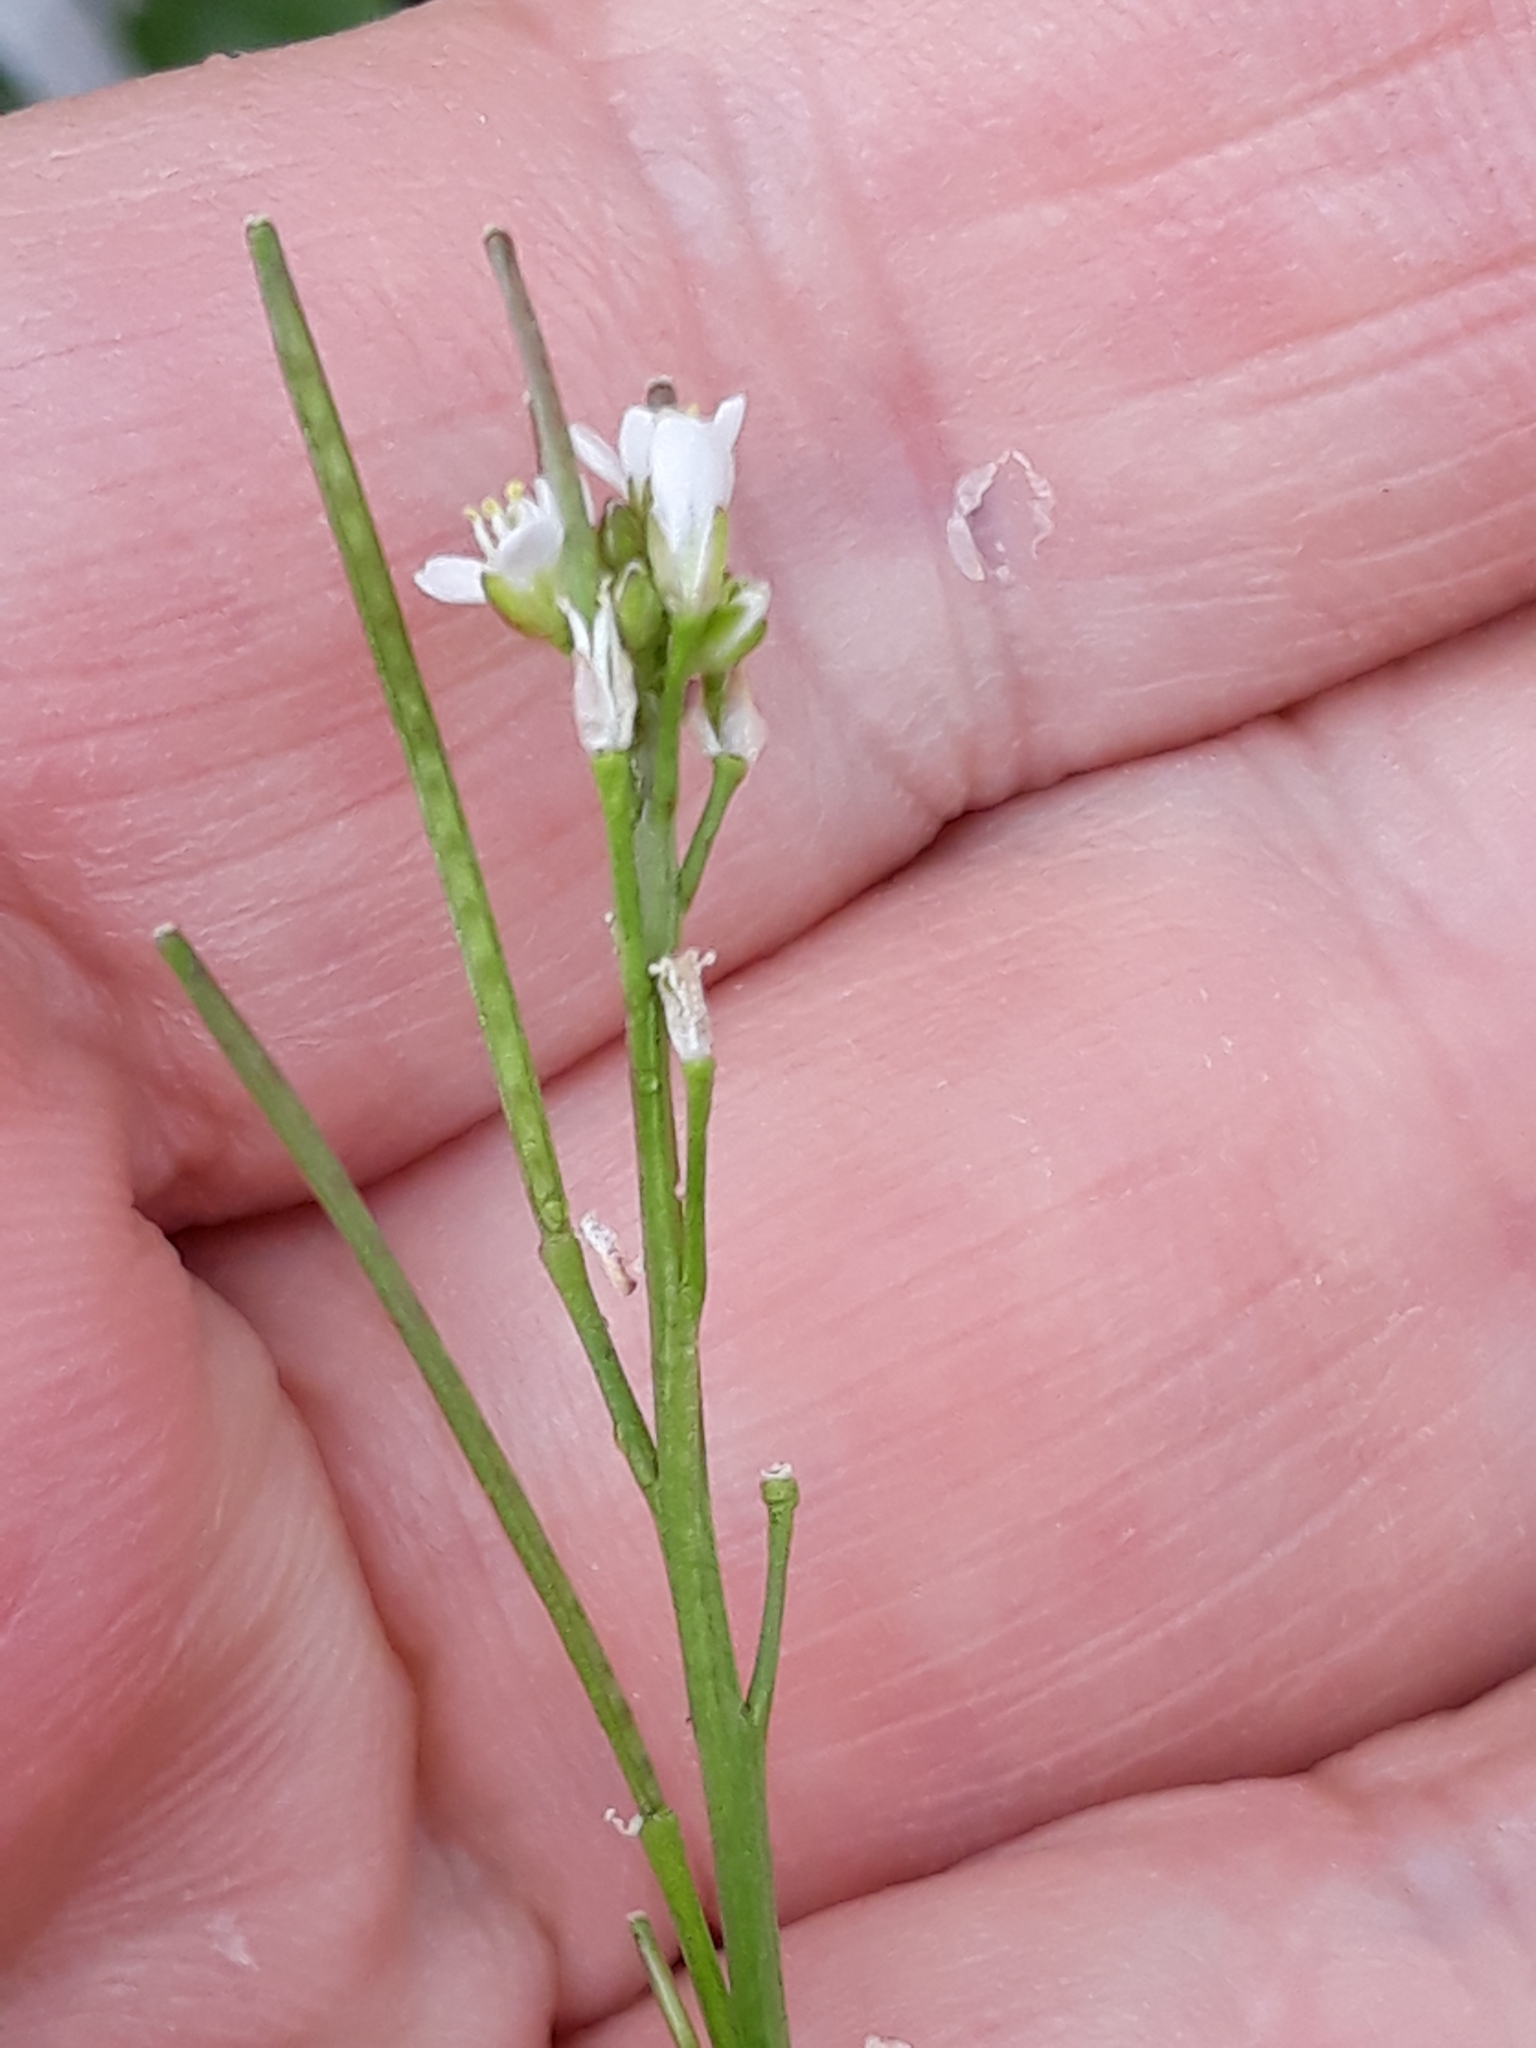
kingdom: Plantae
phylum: Tracheophyta
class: Magnoliopsida
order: Brassicales
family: Brassicaceae
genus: Cardamine
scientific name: Cardamine hirsuta
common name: Hairy bittercress
